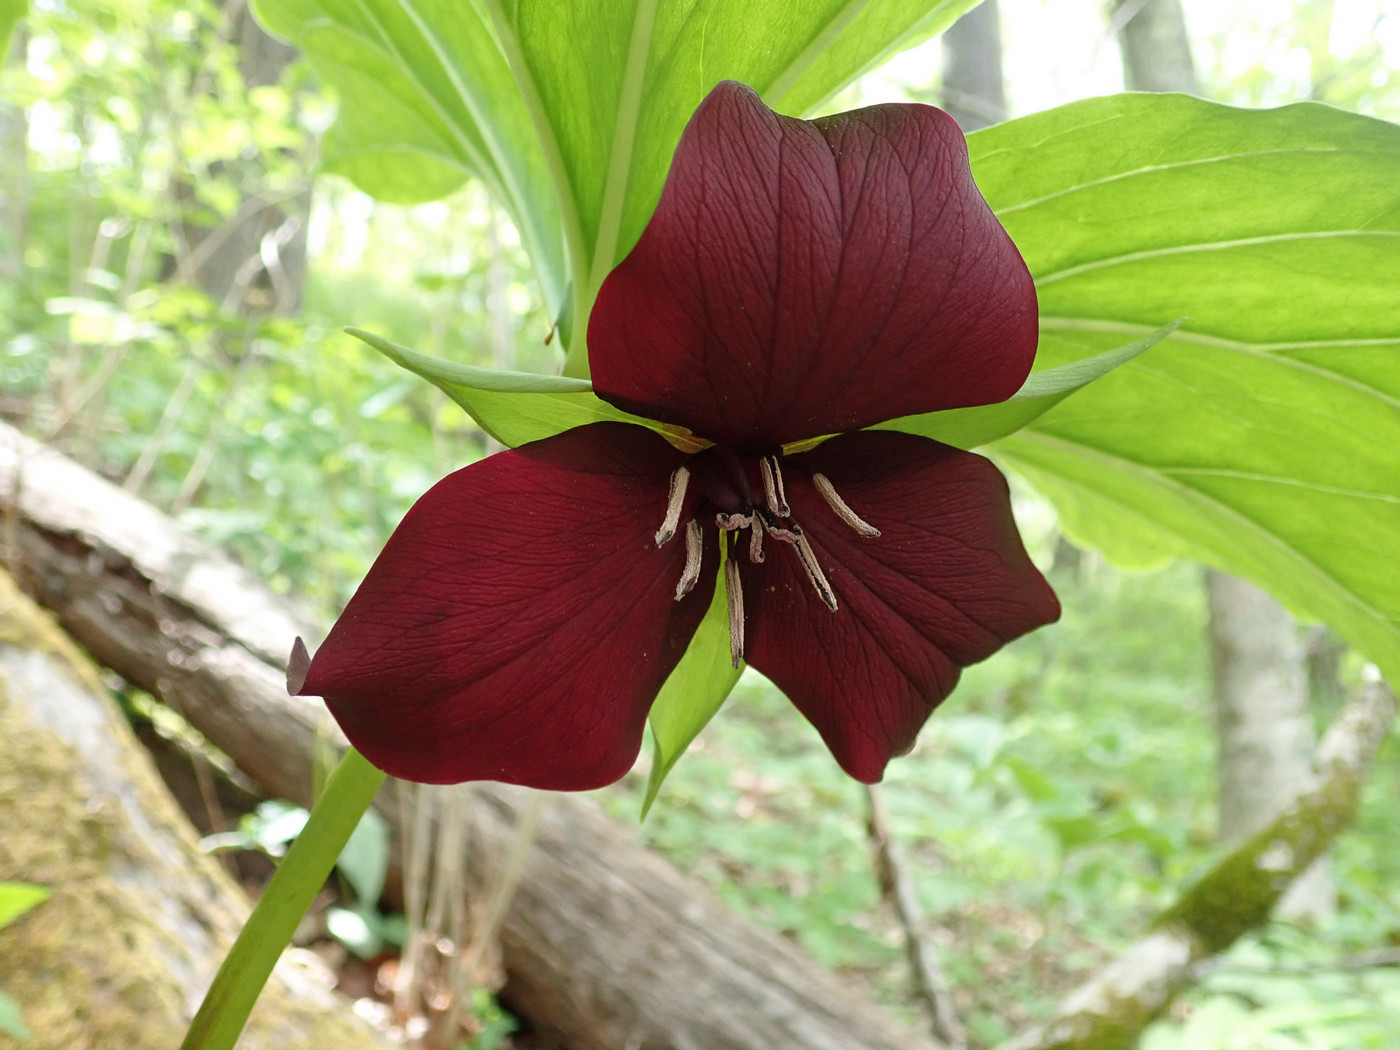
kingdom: Plantae
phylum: Tracheophyta
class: Liliopsida
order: Liliales
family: Melanthiaceae
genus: Trillium
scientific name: Trillium vaseyi
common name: Sweet trillium
